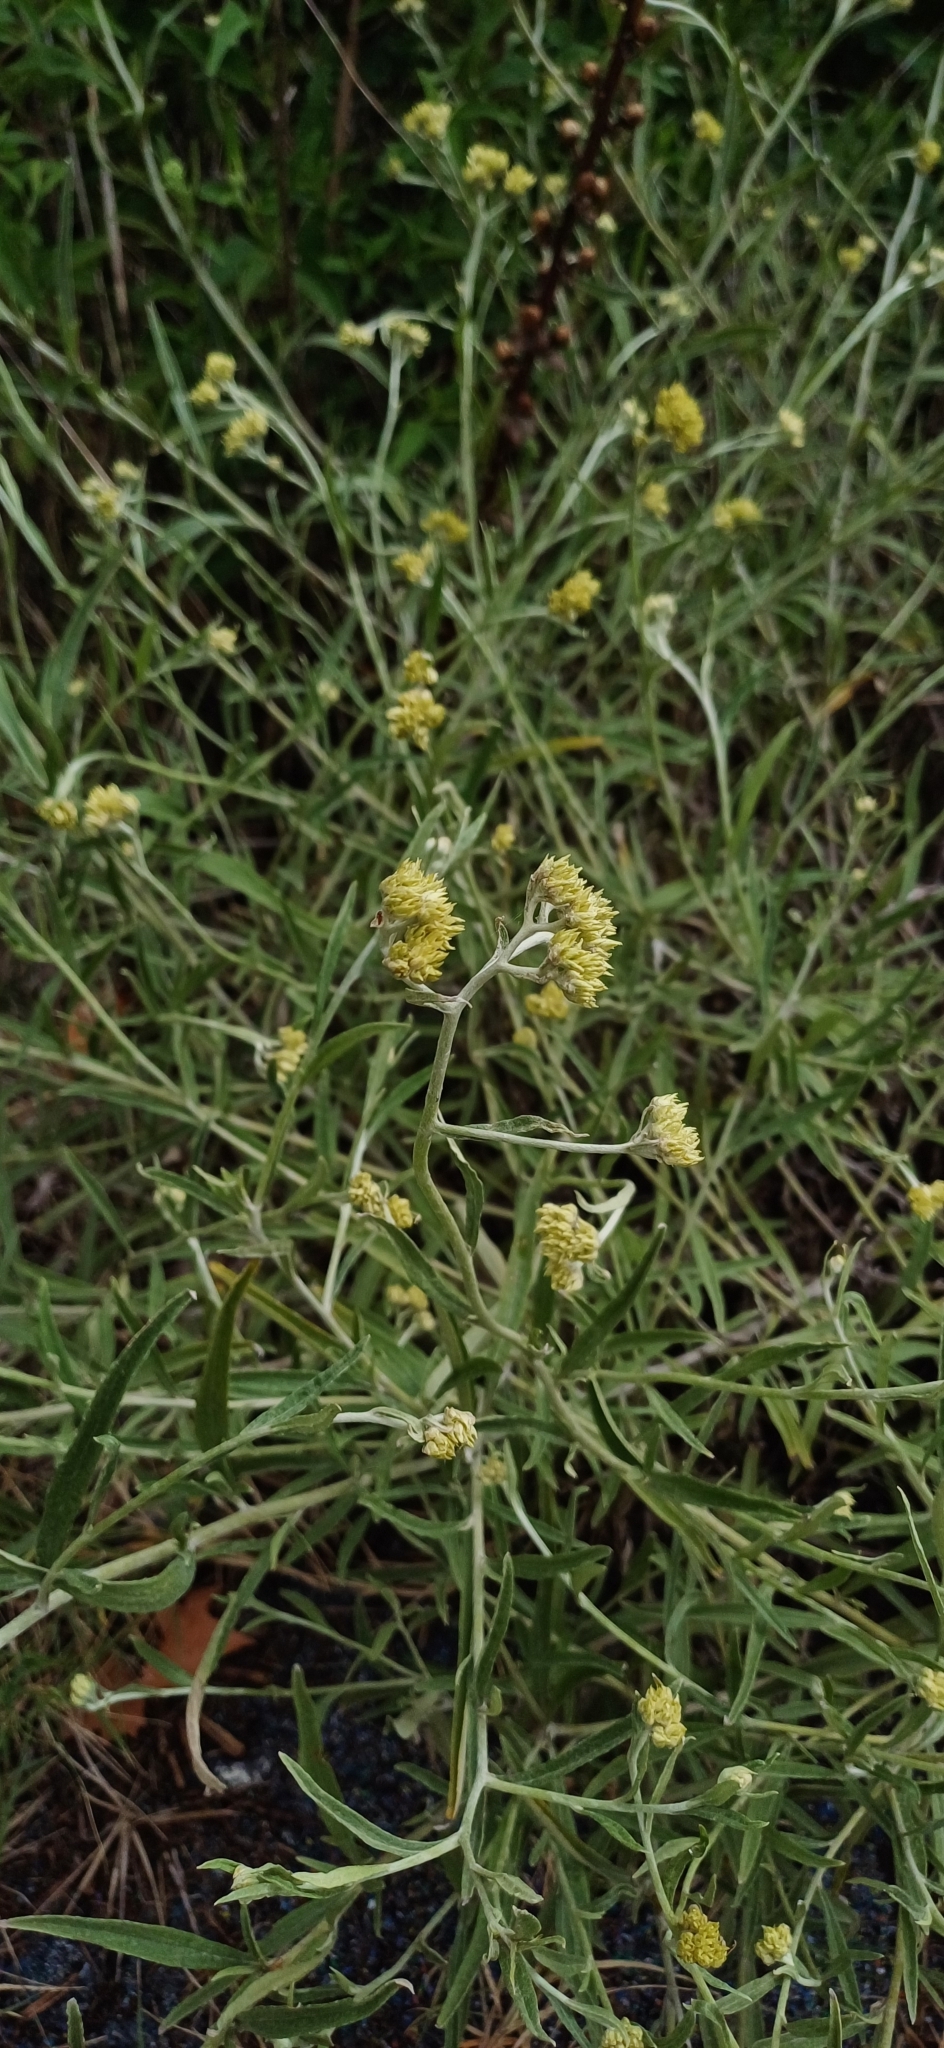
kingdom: Plantae
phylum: Tracheophyta
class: Magnoliopsida
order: Asterales
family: Asteraceae
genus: Achyrocline
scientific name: Achyrocline satureioides
